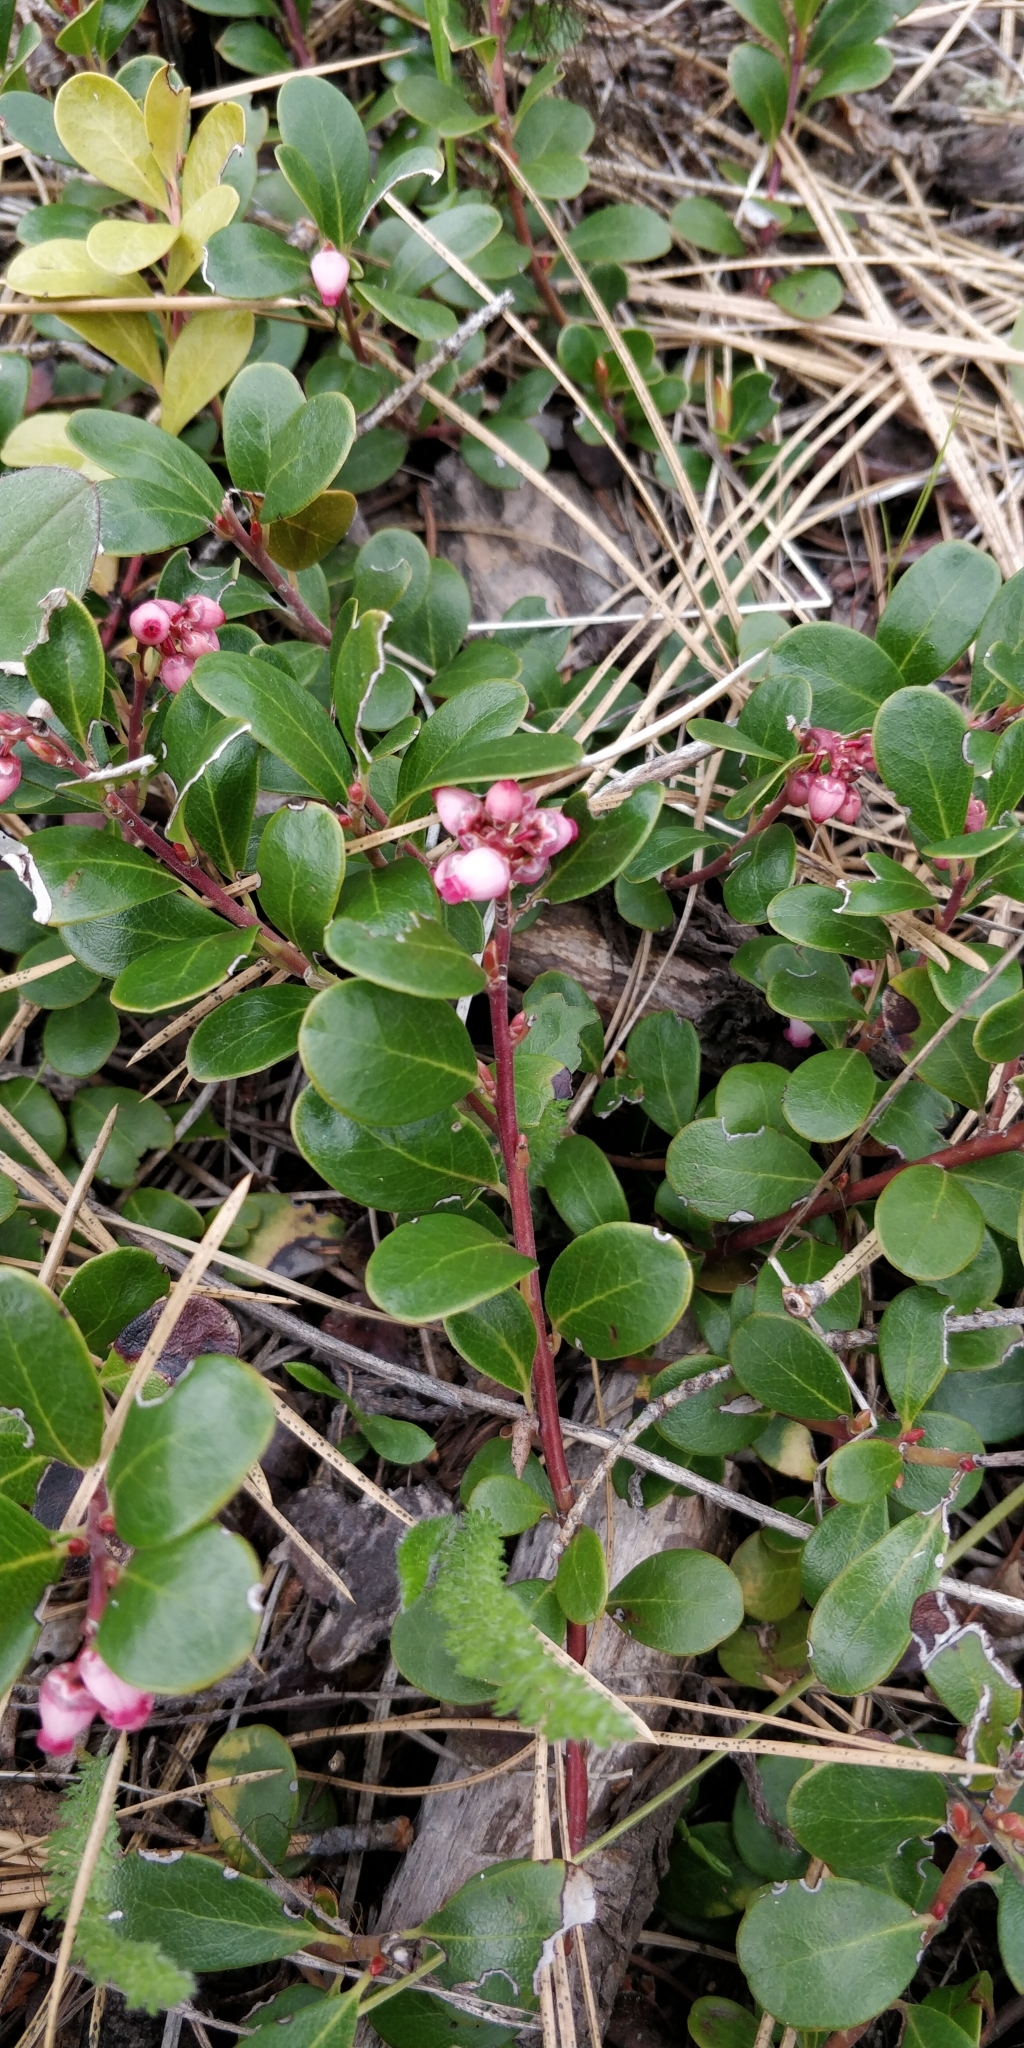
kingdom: Plantae
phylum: Tracheophyta
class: Magnoliopsida
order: Ericales
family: Ericaceae
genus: Arctostaphylos
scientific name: Arctostaphylos uva-ursi
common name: Bearberry
